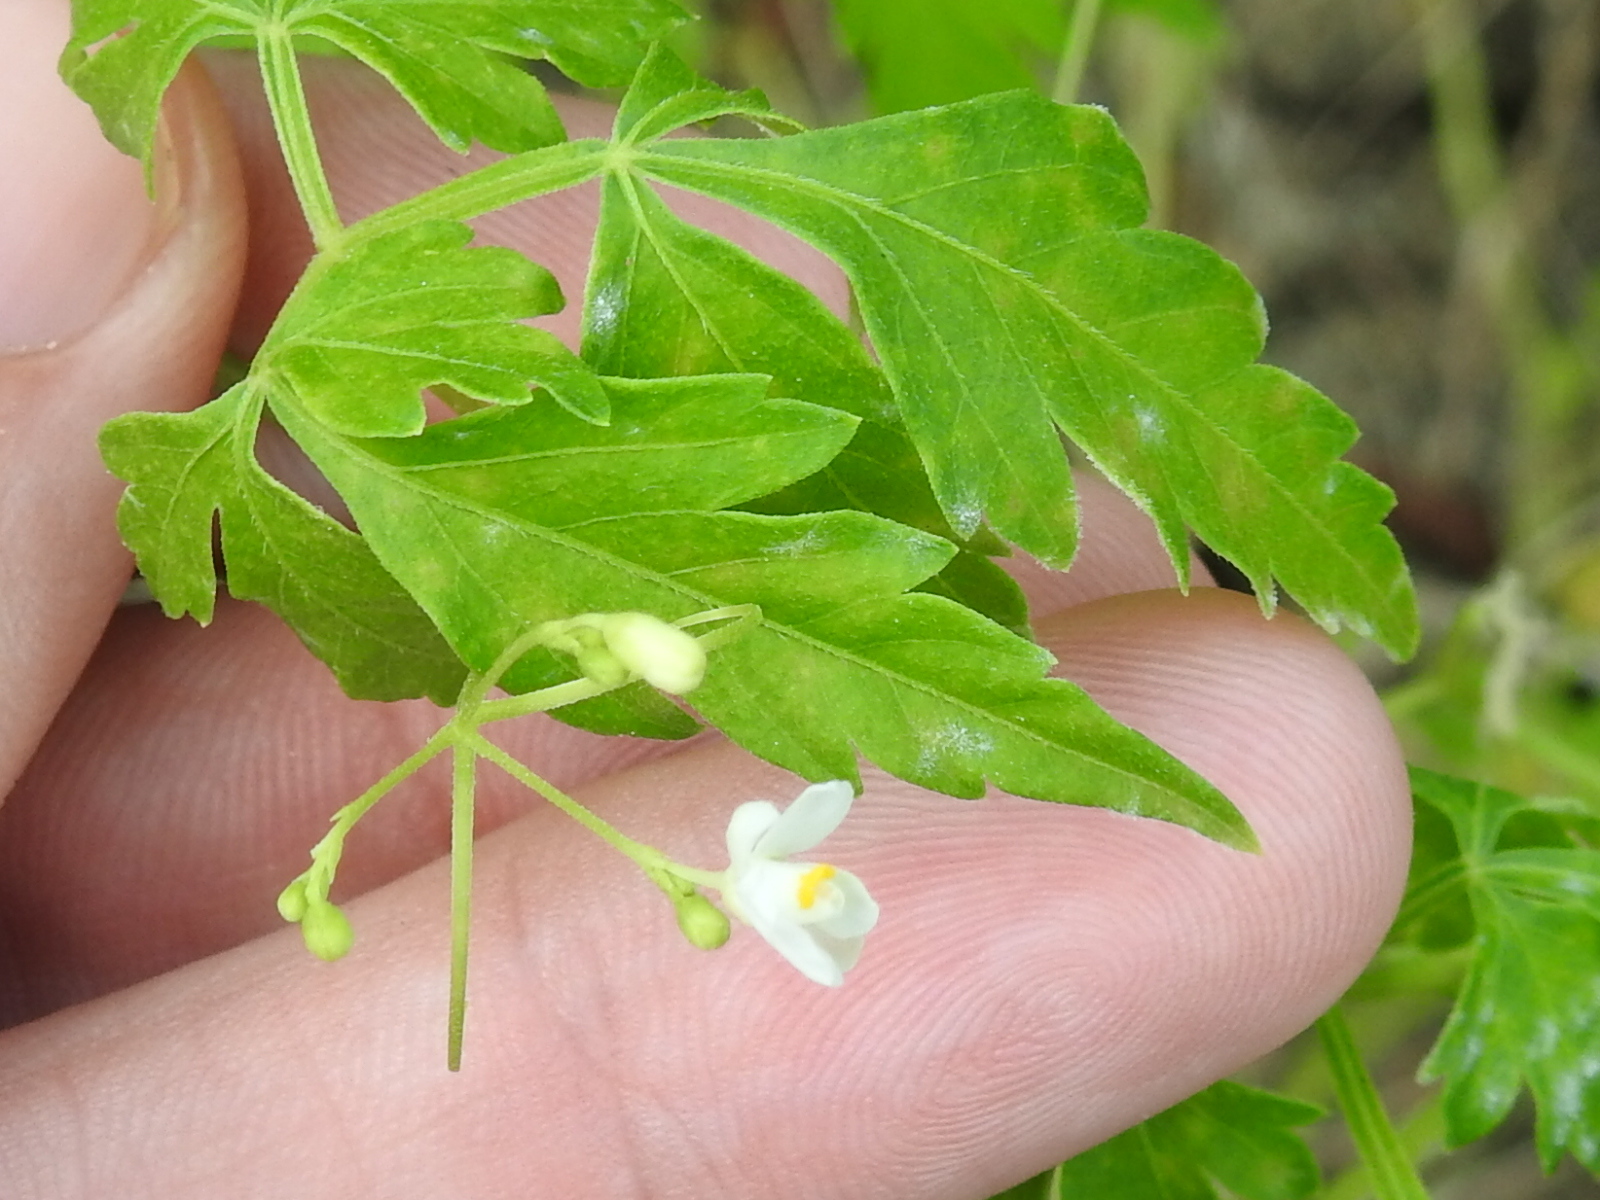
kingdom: Plantae
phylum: Tracheophyta
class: Magnoliopsida
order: Sapindales
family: Sapindaceae
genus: Cardiospermum
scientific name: Cardiospermum halicacabum
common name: Balloon vine
